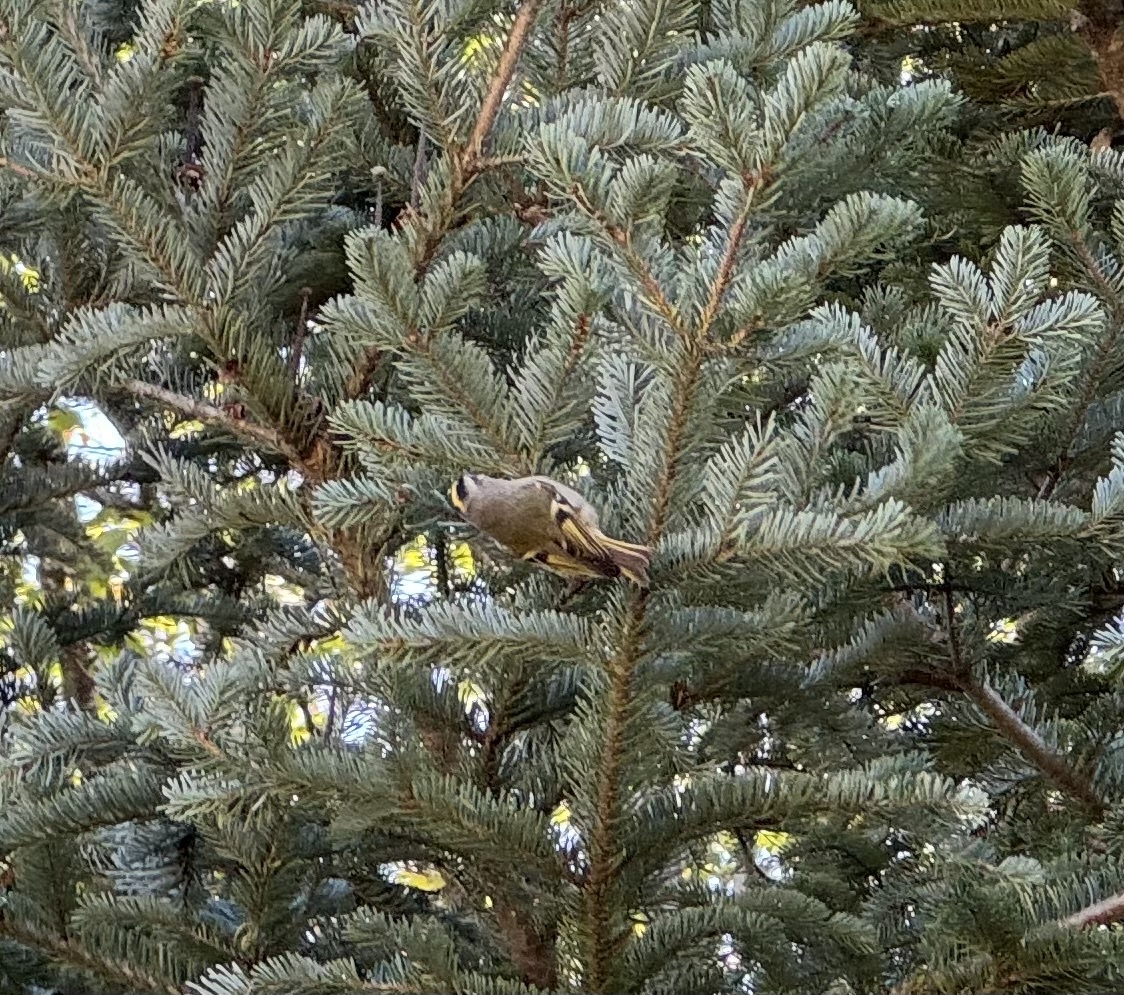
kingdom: Animalia
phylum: Chordata
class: Aves
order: Passeriformes
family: Regulidae
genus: Regulus
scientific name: Regulus satrapa
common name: Golden-crowned kinglet
